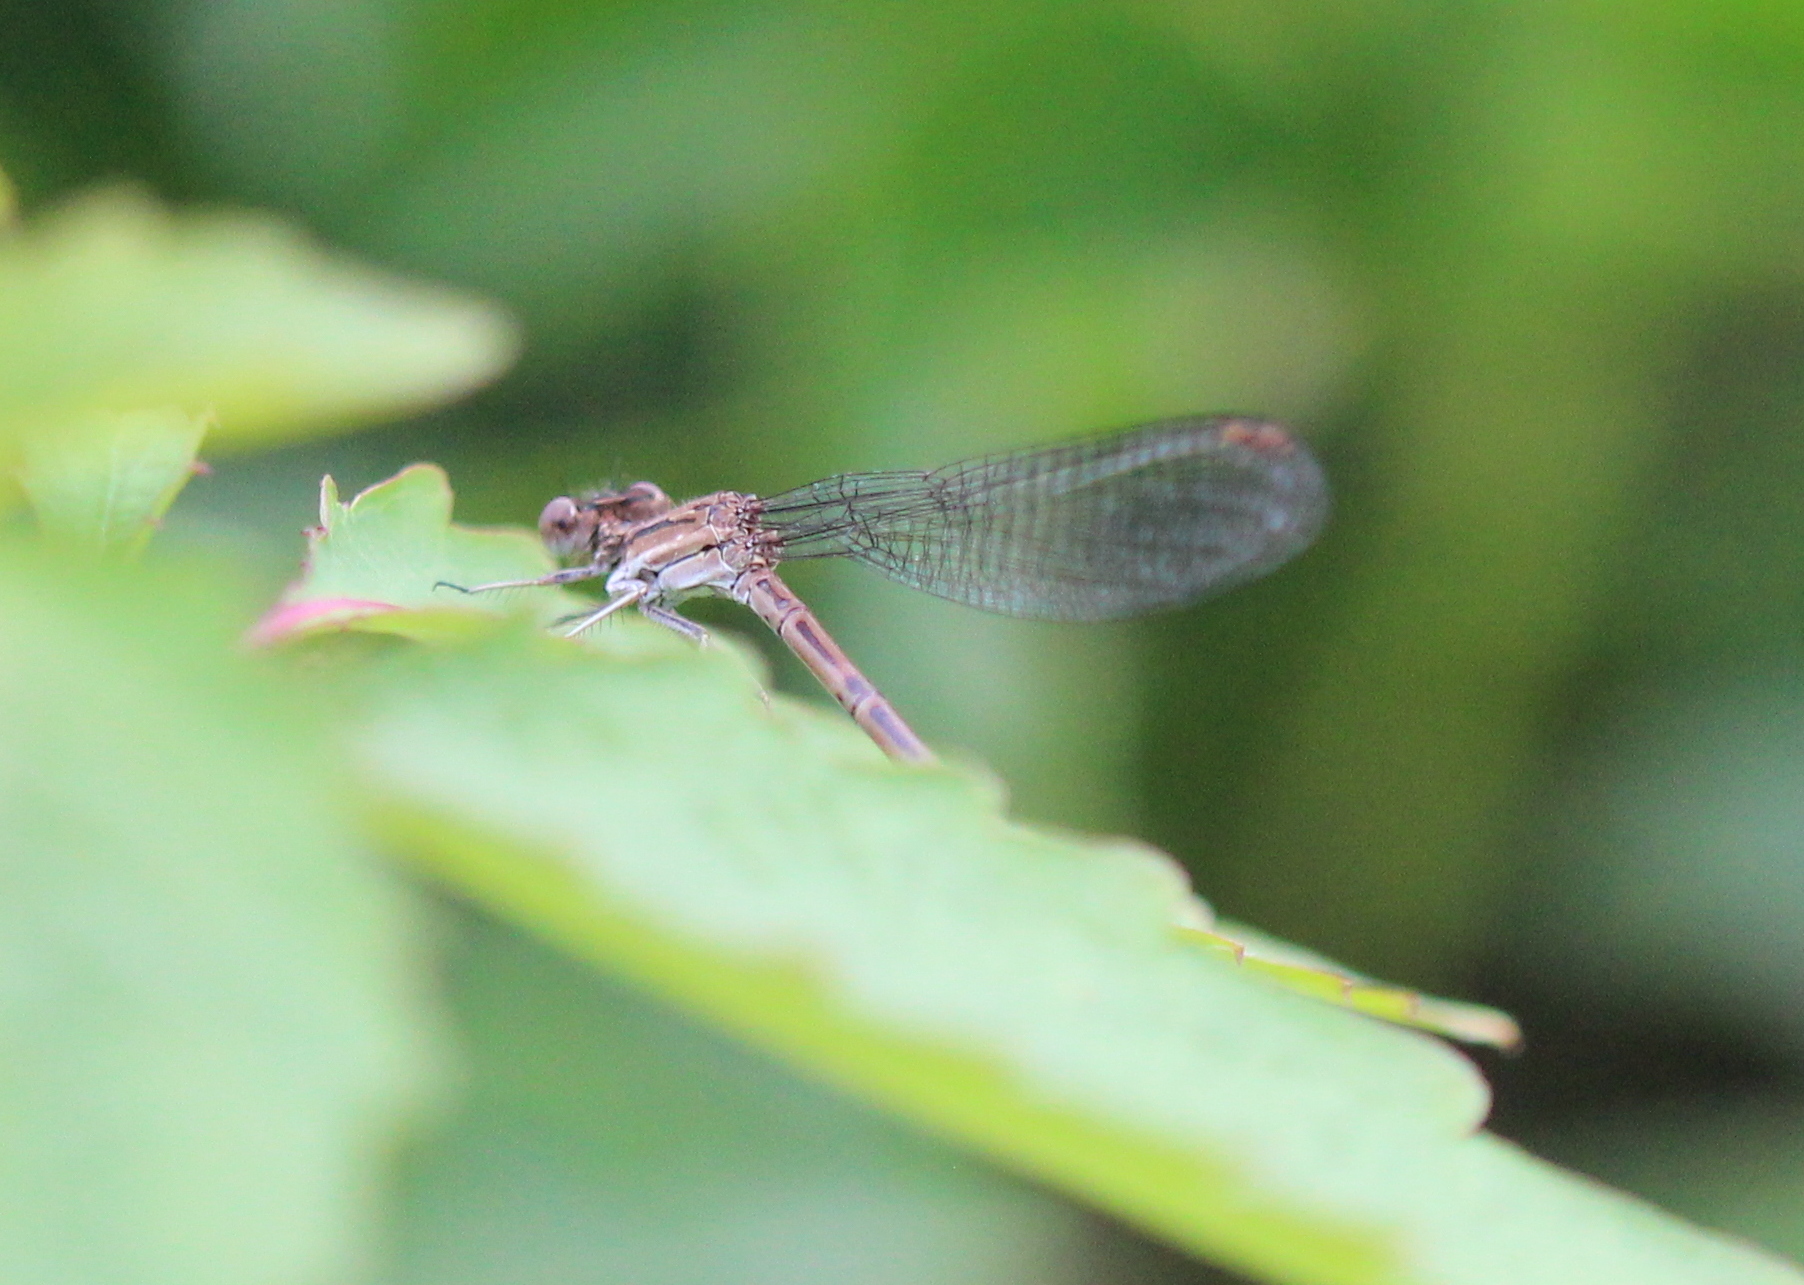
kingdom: Animalia
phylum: Arthropoda
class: Insecta
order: Odonata
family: Coenagrionidae
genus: Argia
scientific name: Argia fumipennis
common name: Variable dancer
